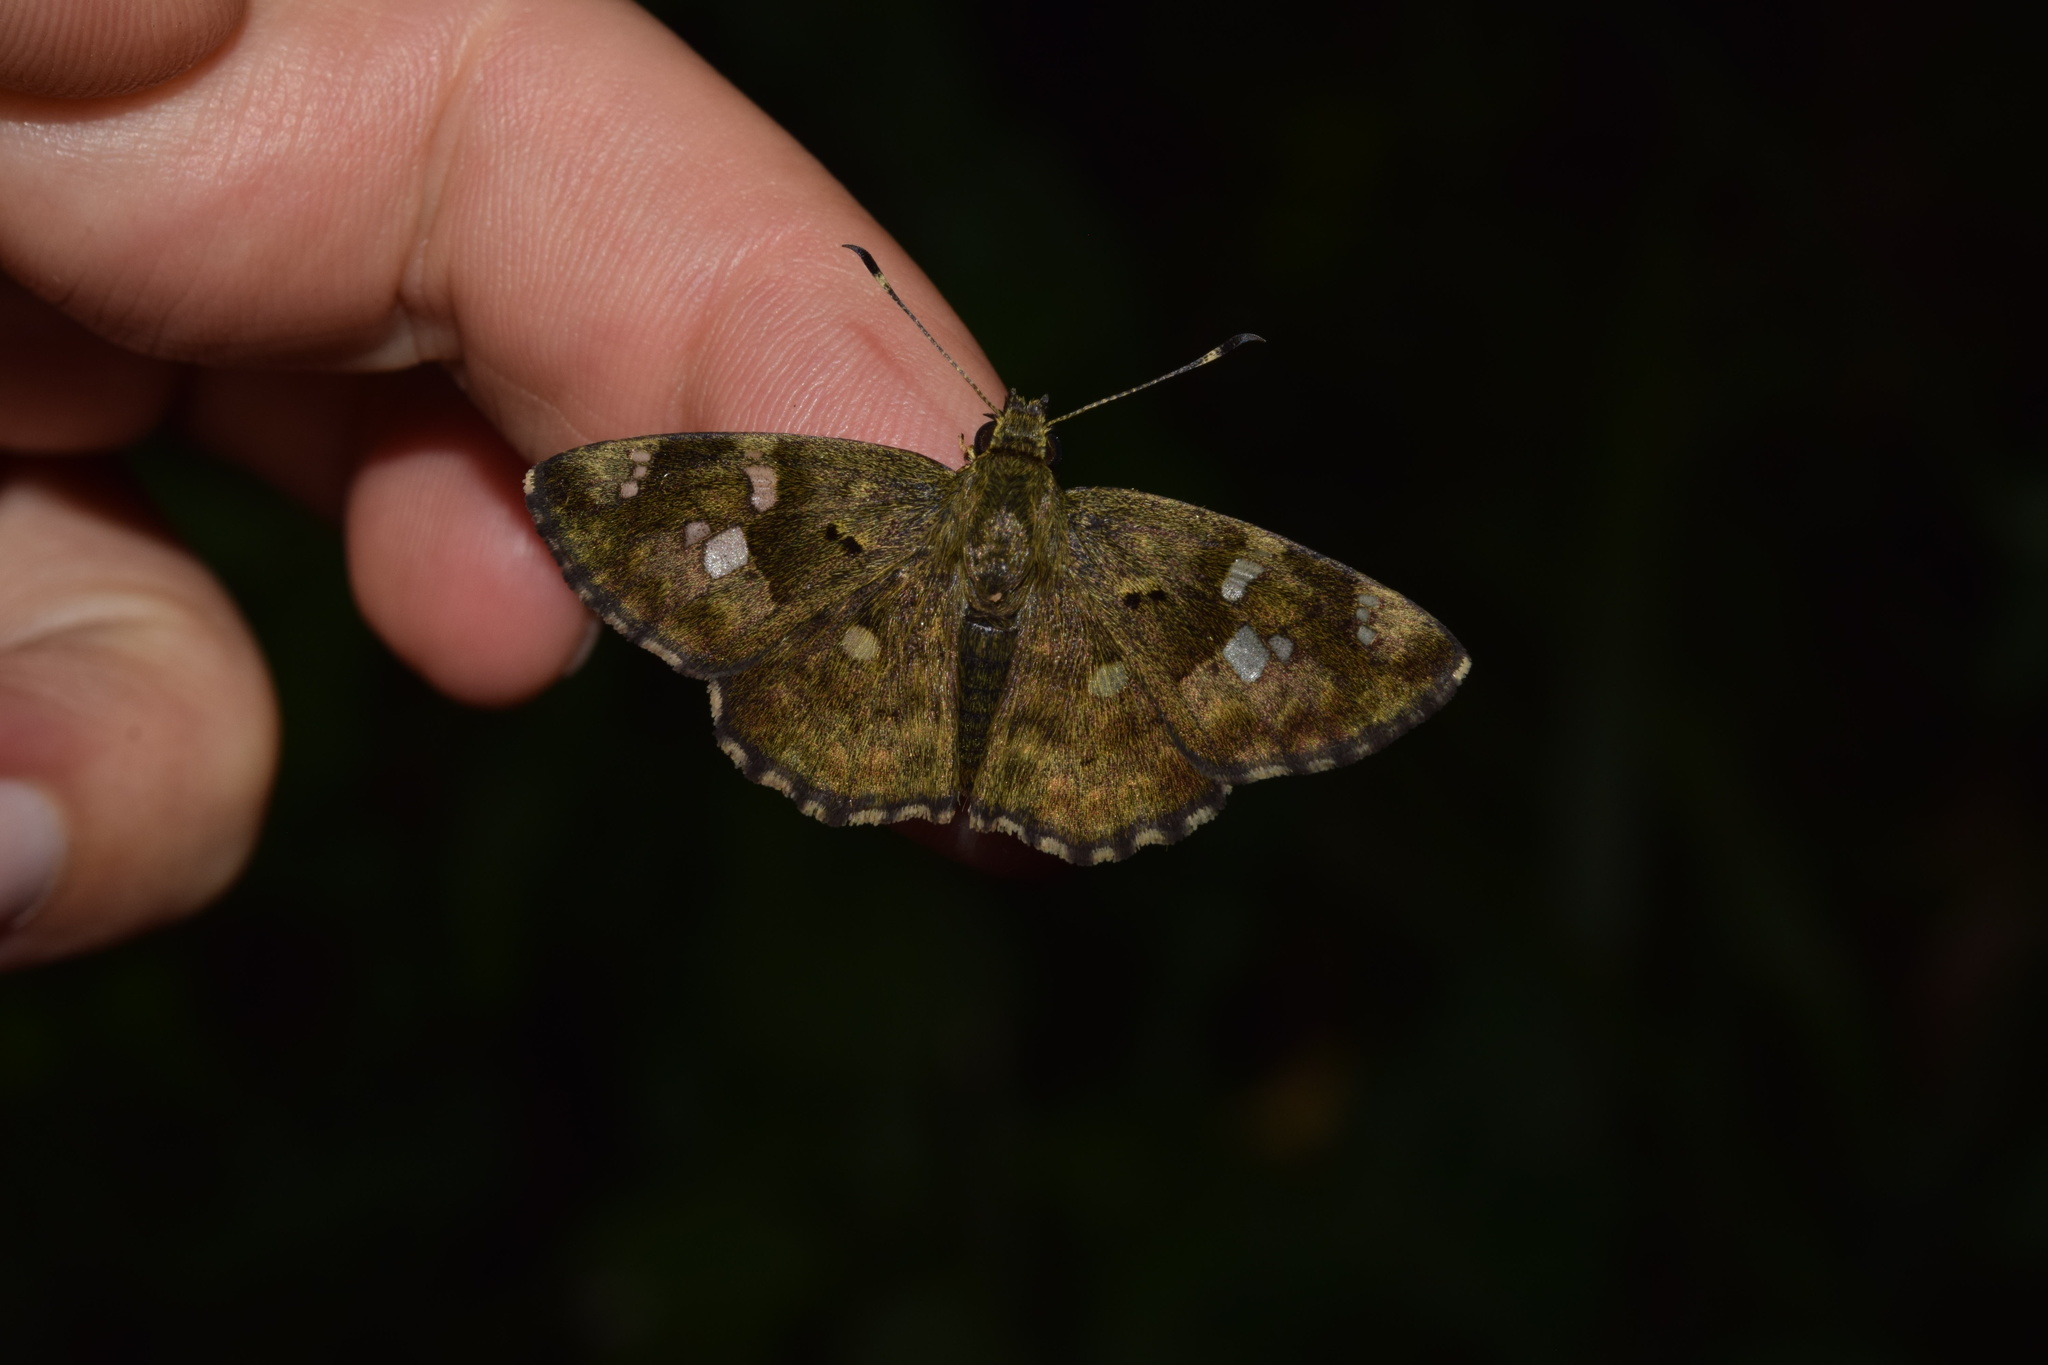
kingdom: Animalia
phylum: Arthropoda
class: Insecta
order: Lepidoptera
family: Hesperiidae
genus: Sarangesa
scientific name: Sarangesa motozi
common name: Forest elfin
